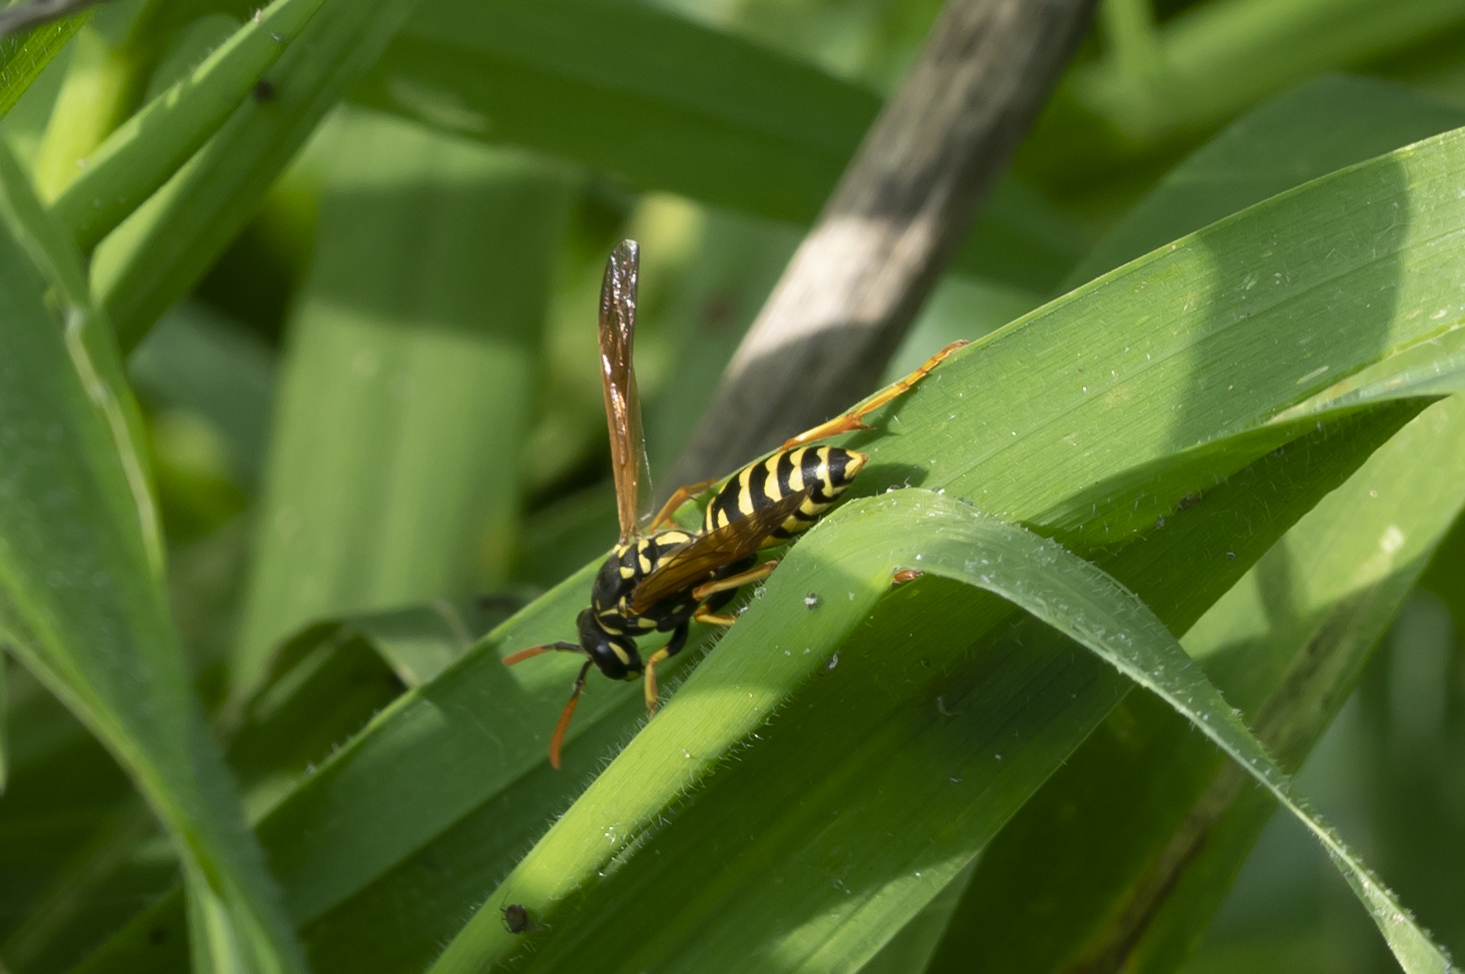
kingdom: Animalia
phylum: Arthropoda
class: Insecta
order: Hymenoptera
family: Eumenidae
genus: Polistes
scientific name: Polistes dominula
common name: Paper wasp
